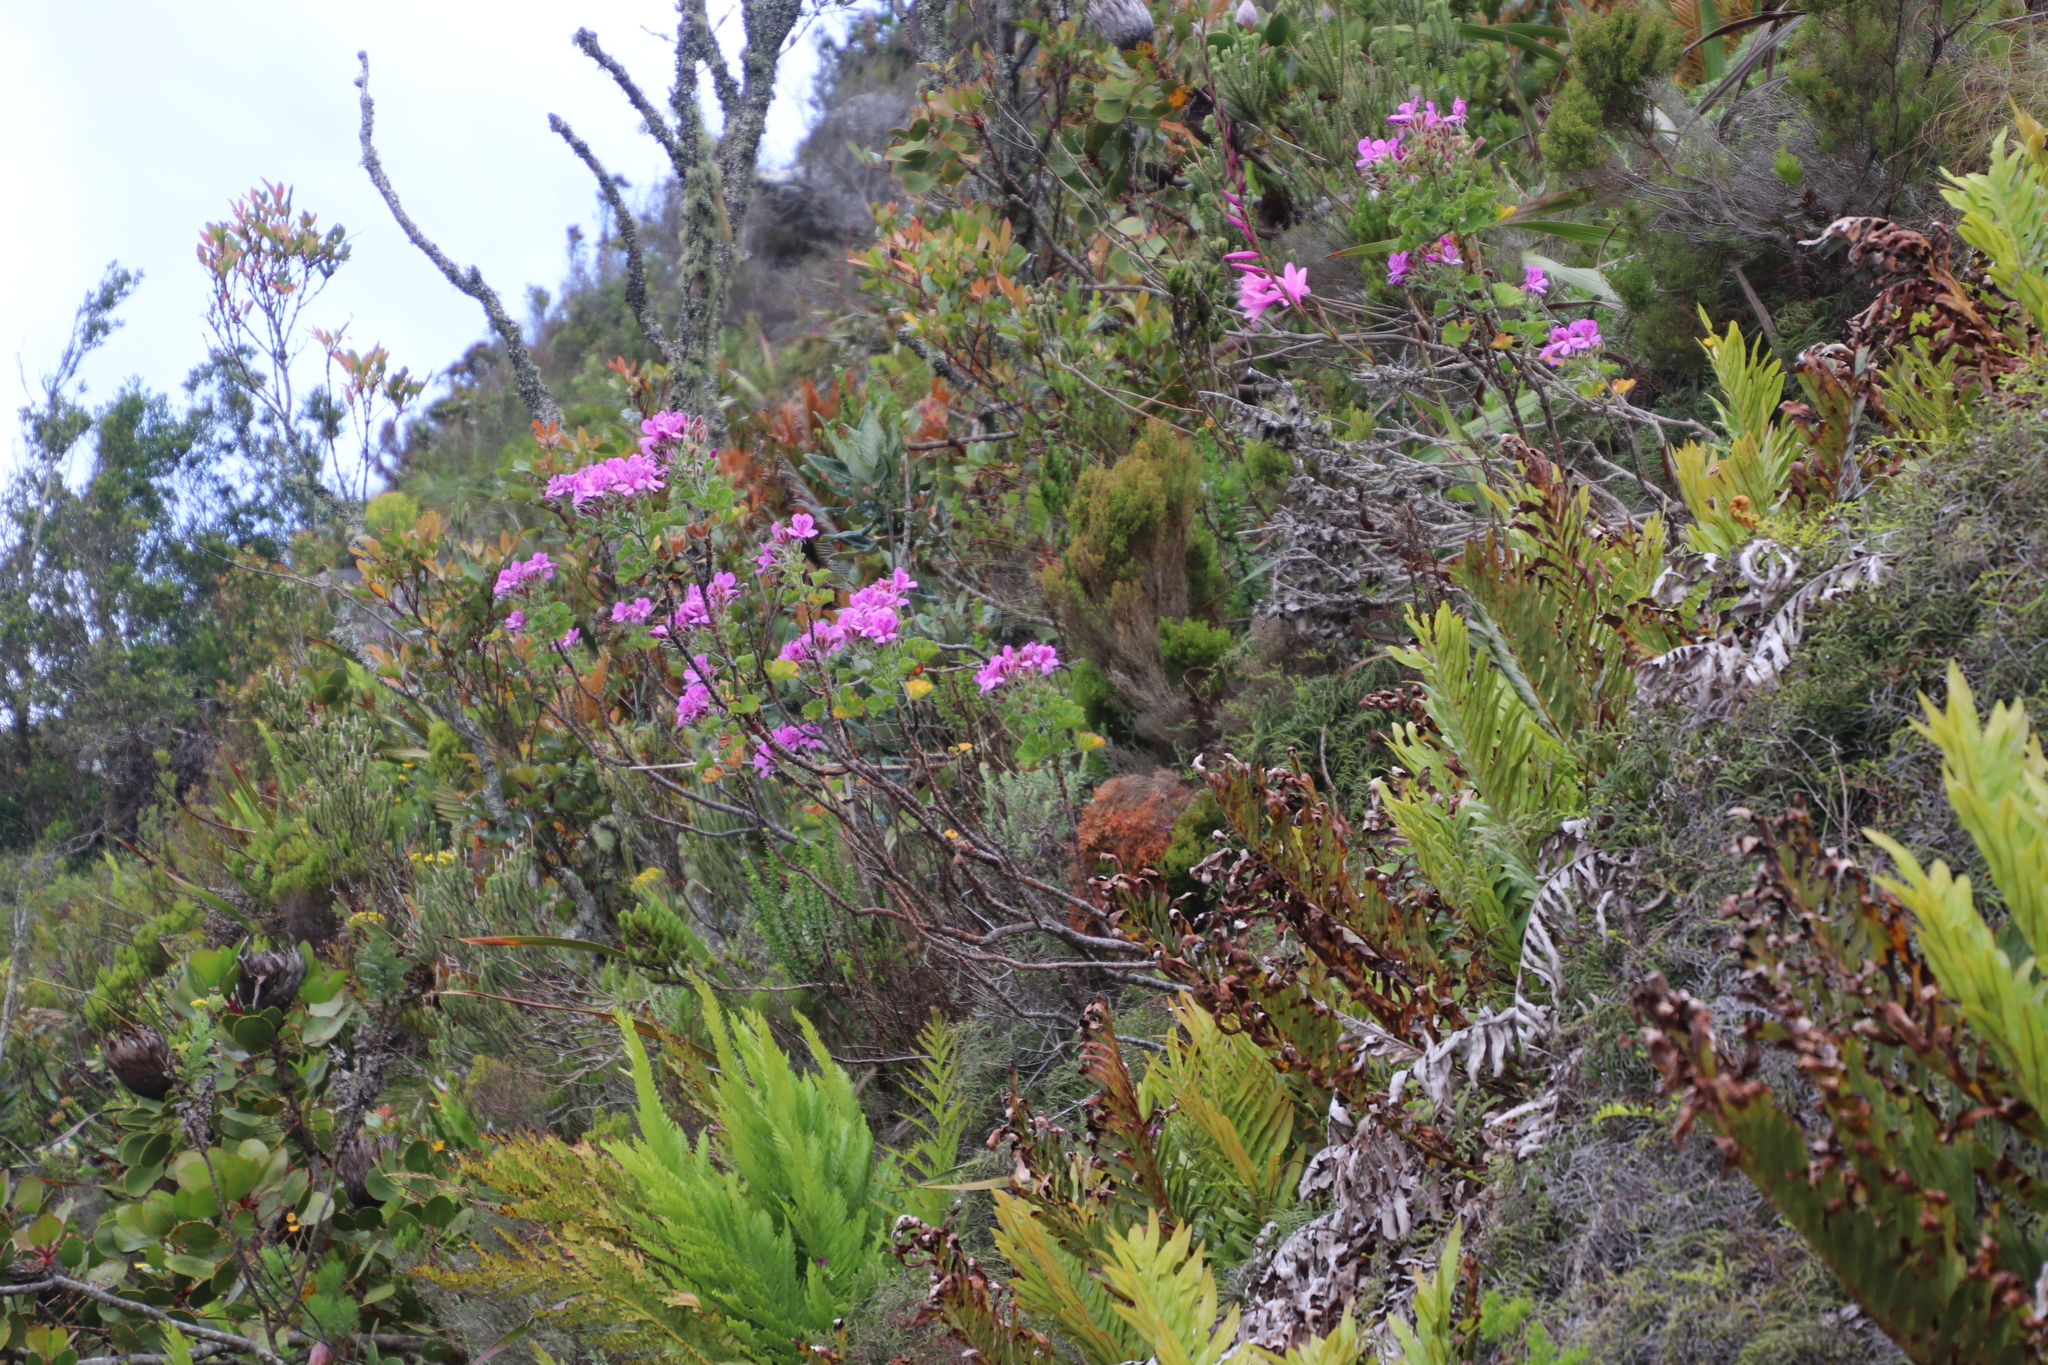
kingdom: Plantae
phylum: Tracheophyta
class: Magnoliopsida
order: Geraniales
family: Geraniaceae
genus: Pelargonium
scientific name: Pelargonium cucullatum
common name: Tree pelargonium
